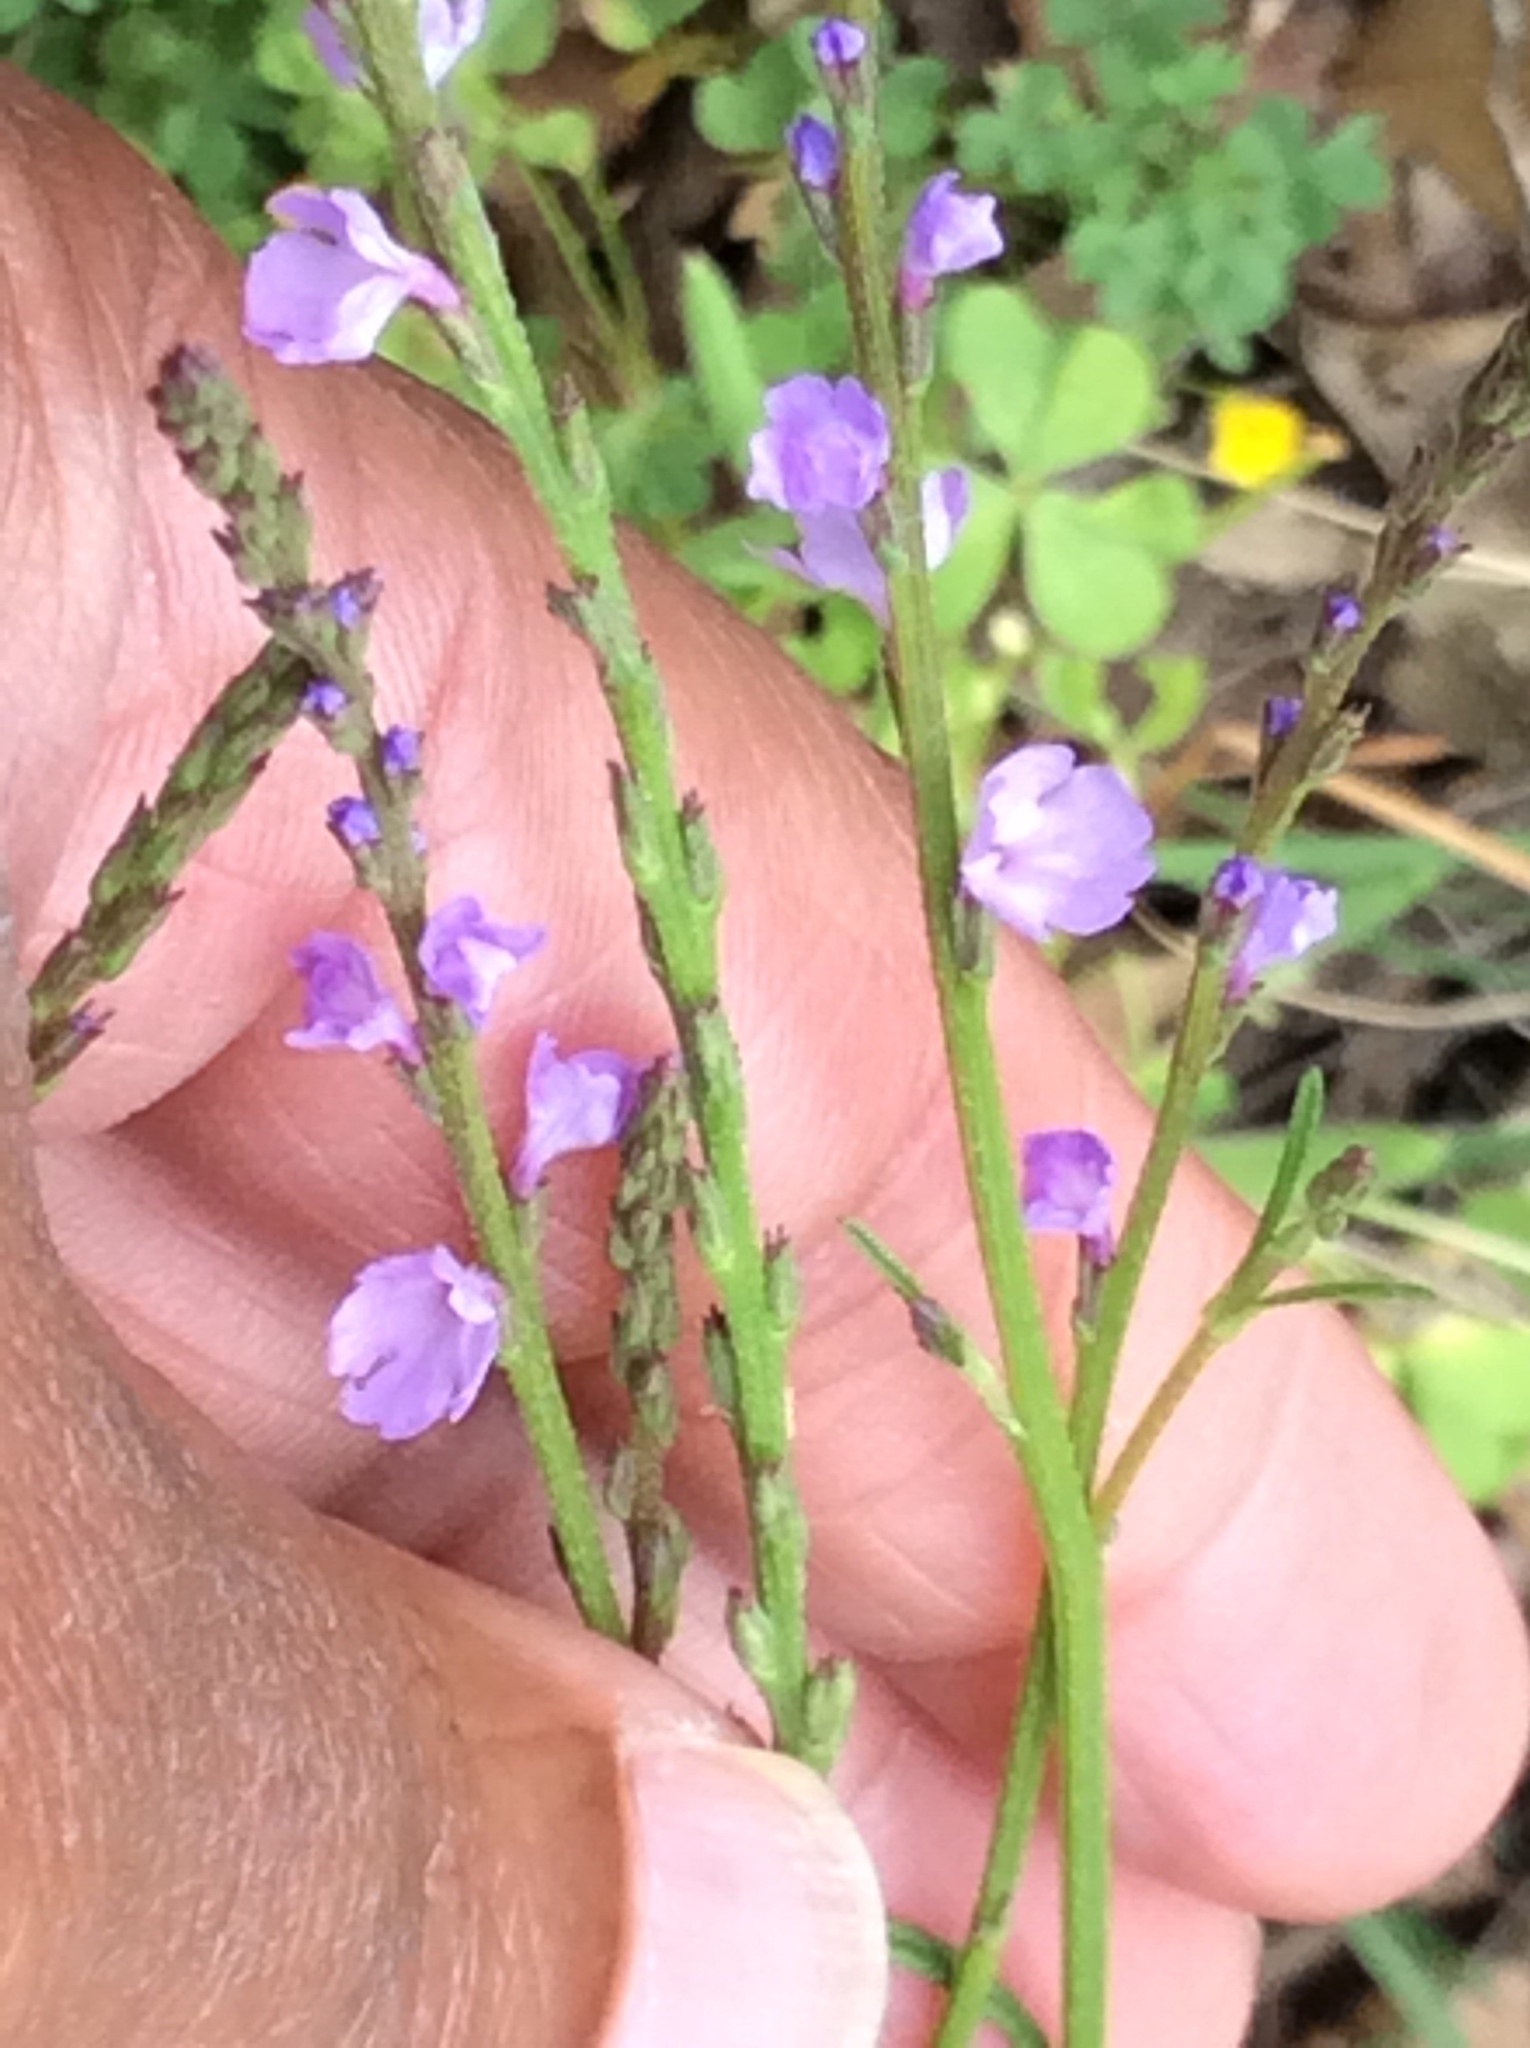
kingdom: Plantae
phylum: Tracheophyta
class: Magnoliopsida
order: Lamiales
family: Verbenaceae
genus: Verbena
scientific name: Verbena halei
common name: Texas vervain
